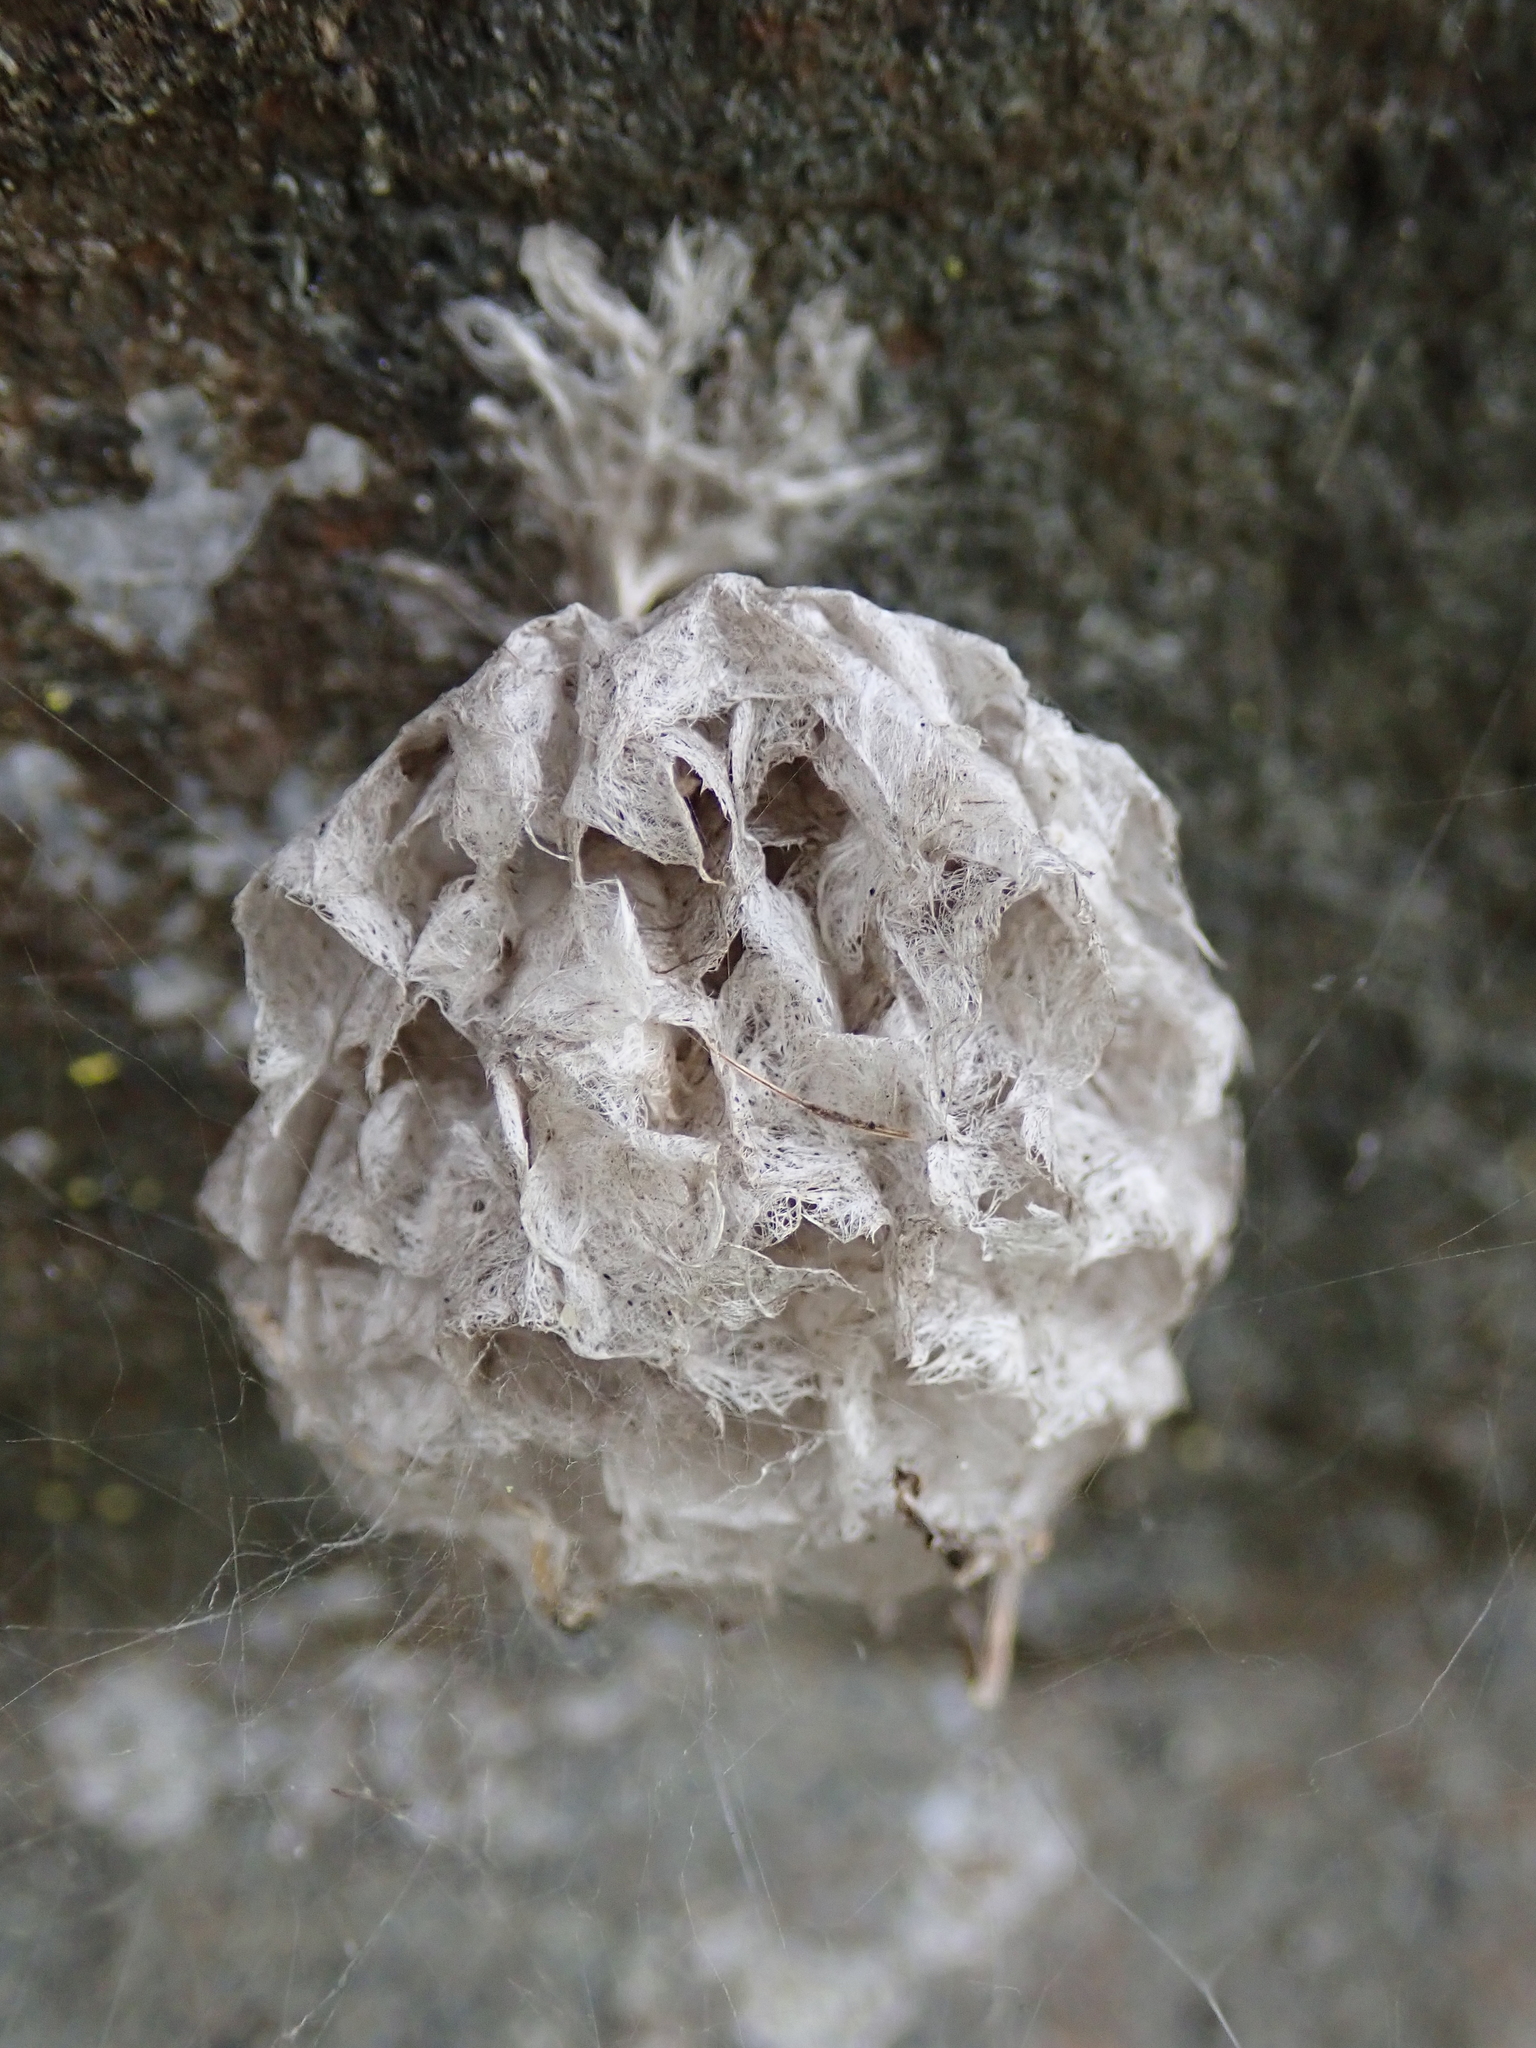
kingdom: Animalia
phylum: Arthropoda
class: Insecta
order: Hymenoptera
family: Vespidae
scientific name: Vespidae
